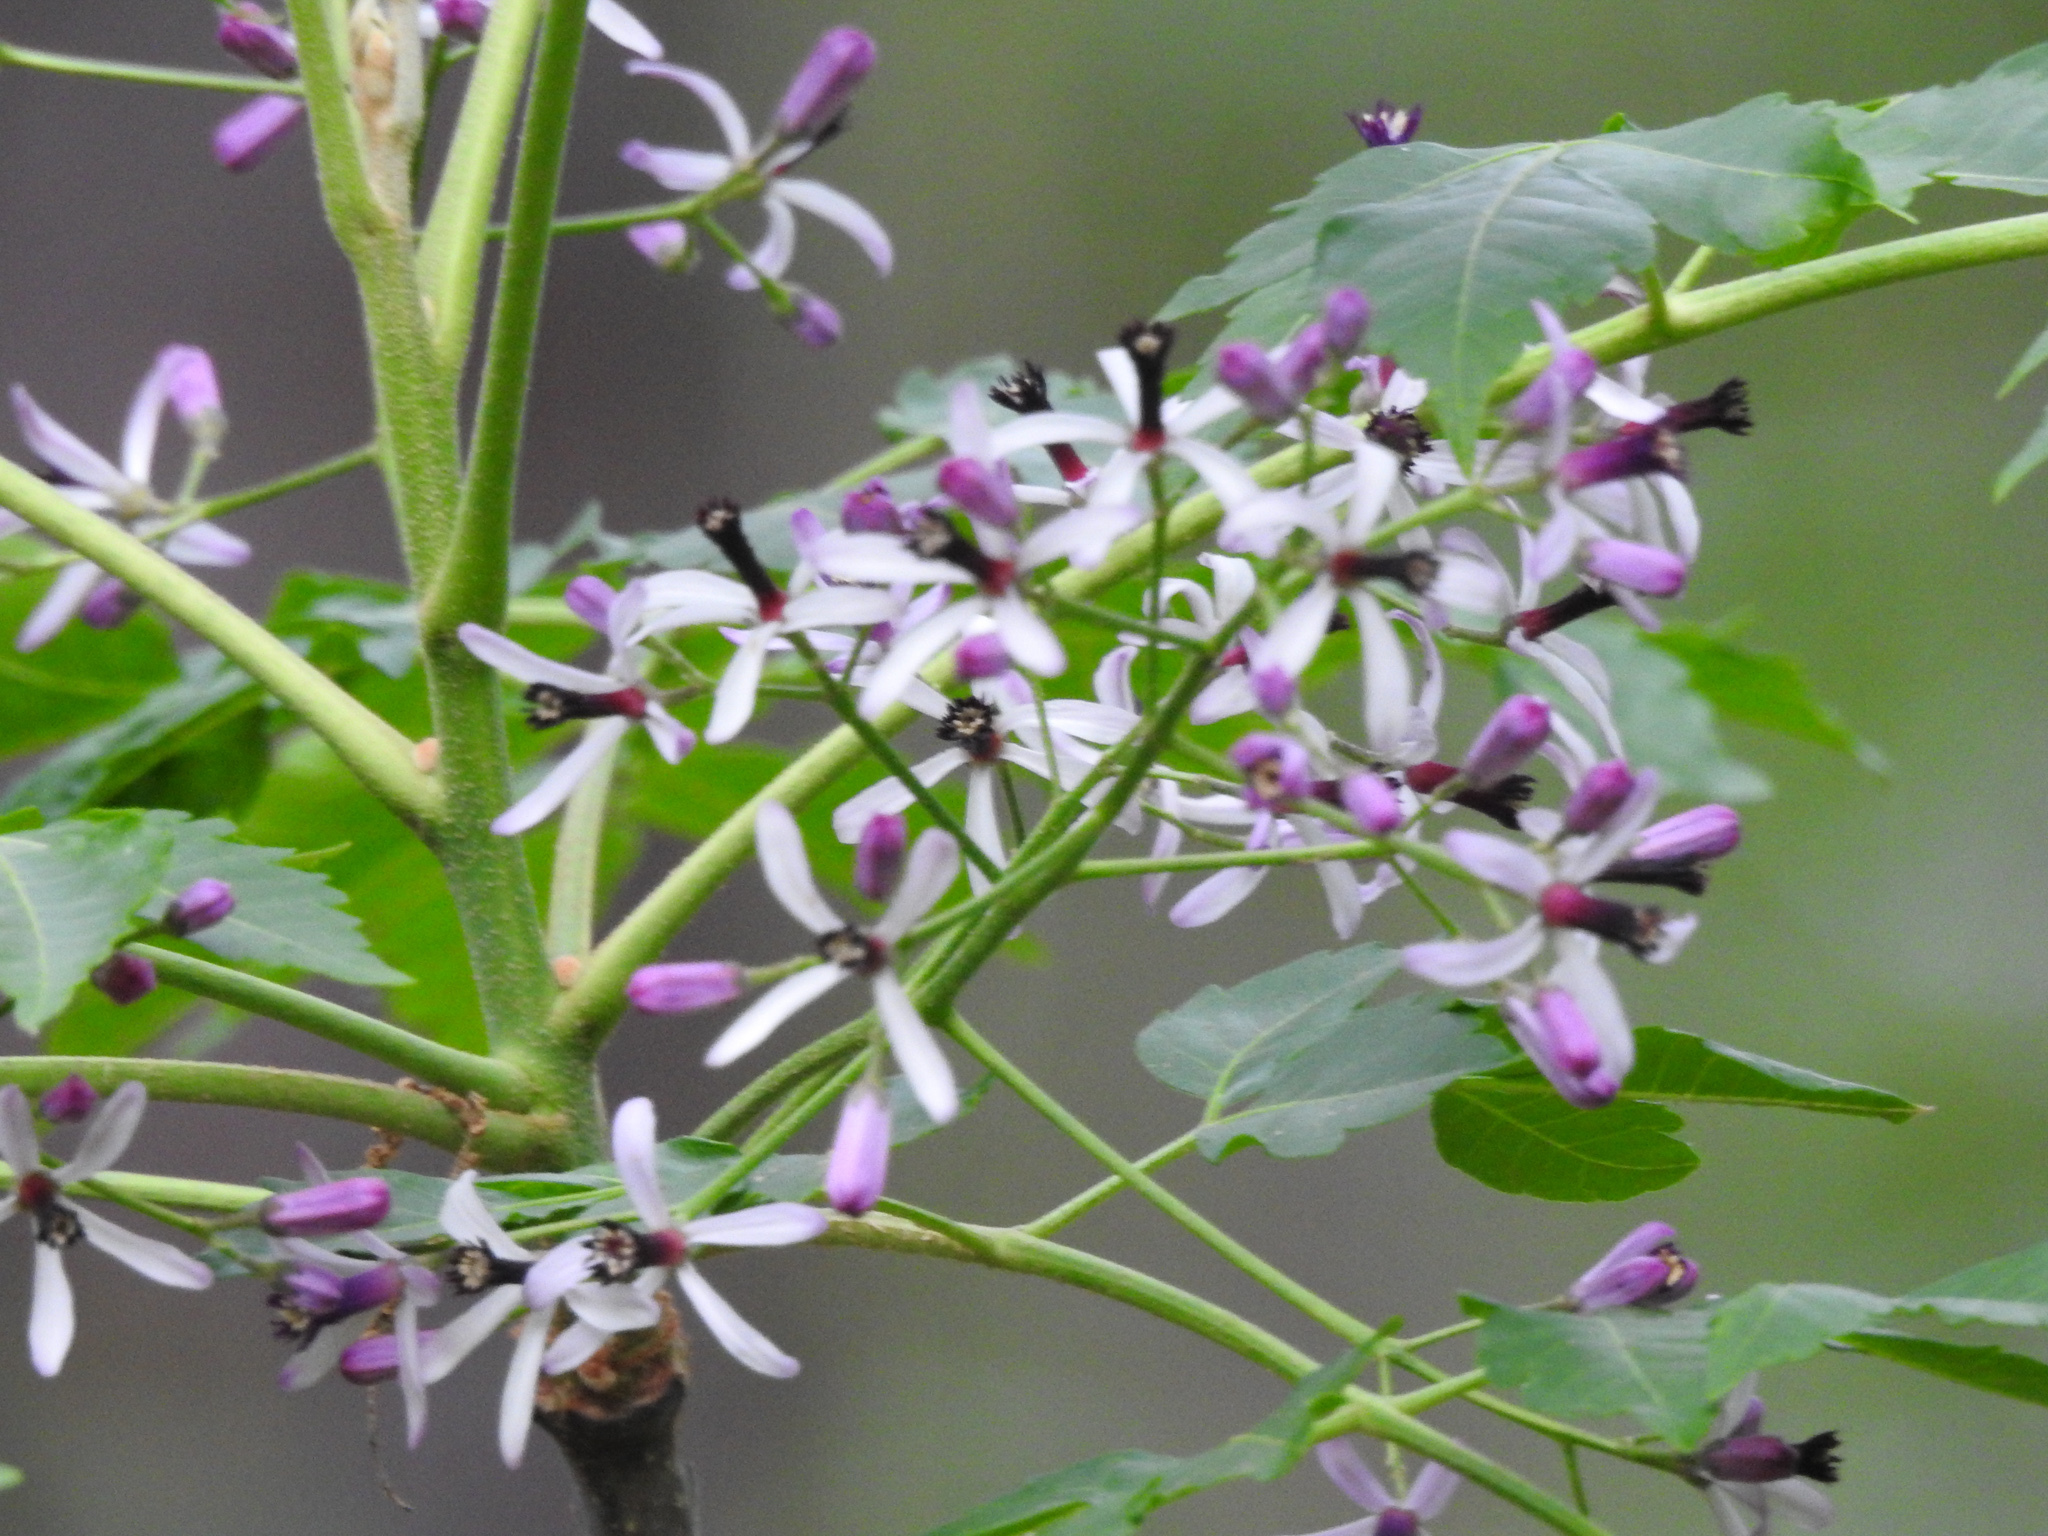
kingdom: Plantae
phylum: Tracheophyta
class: Magnoliopsida
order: Sapindales
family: Meliaceae
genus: Melia
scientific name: Melia azedarach
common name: Chinaberrytree
